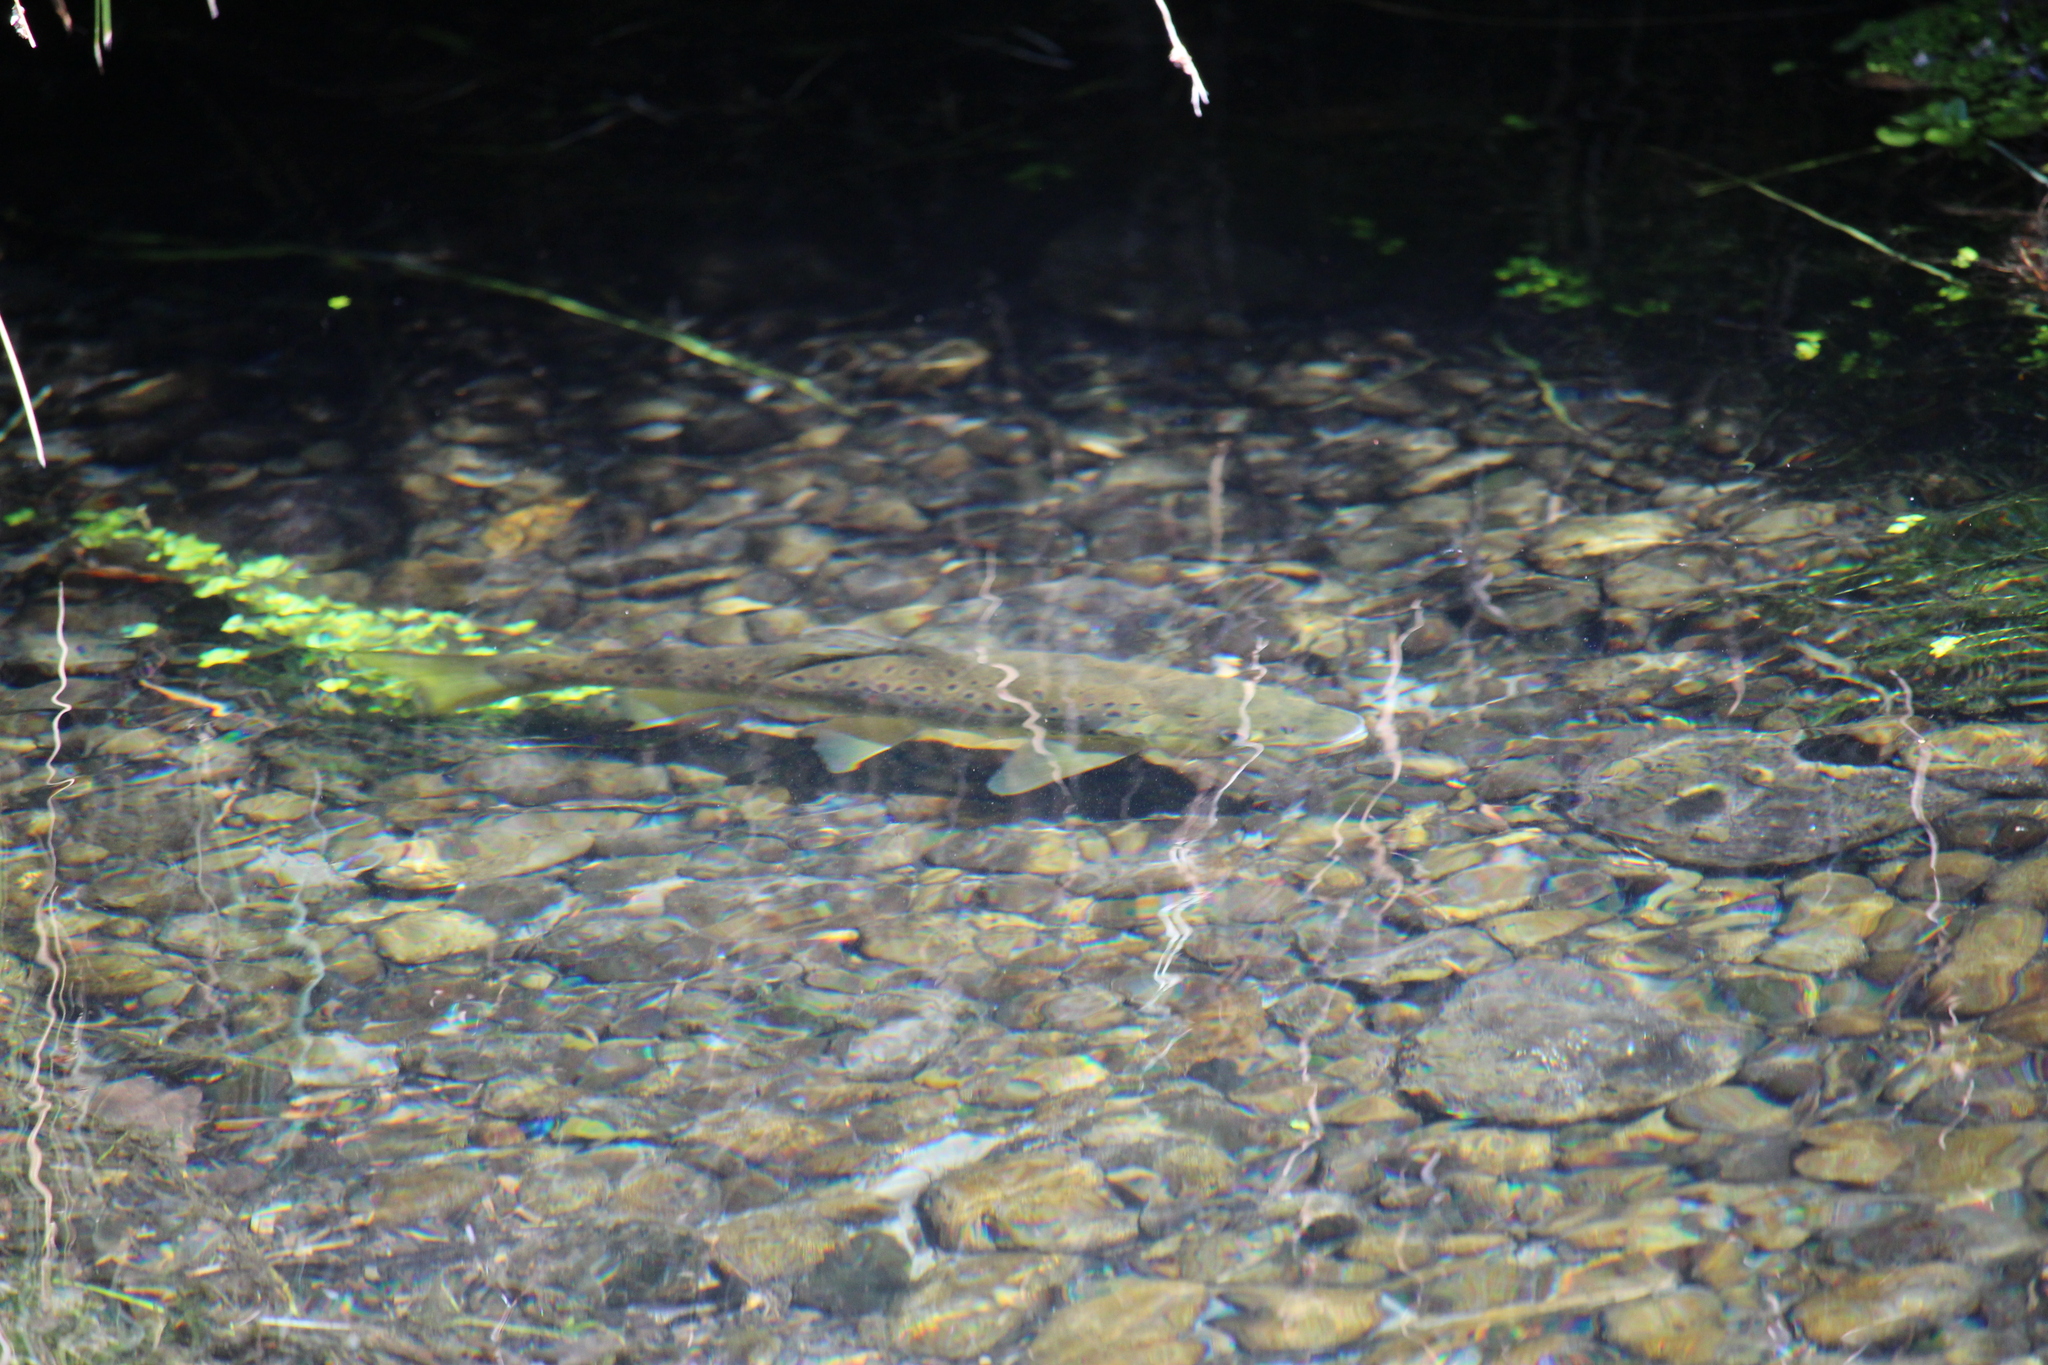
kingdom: Animalia
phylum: Chordata
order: Salmoniformes
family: Salmonidae
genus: Salmo
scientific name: Salmo trutta
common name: Brown trout
